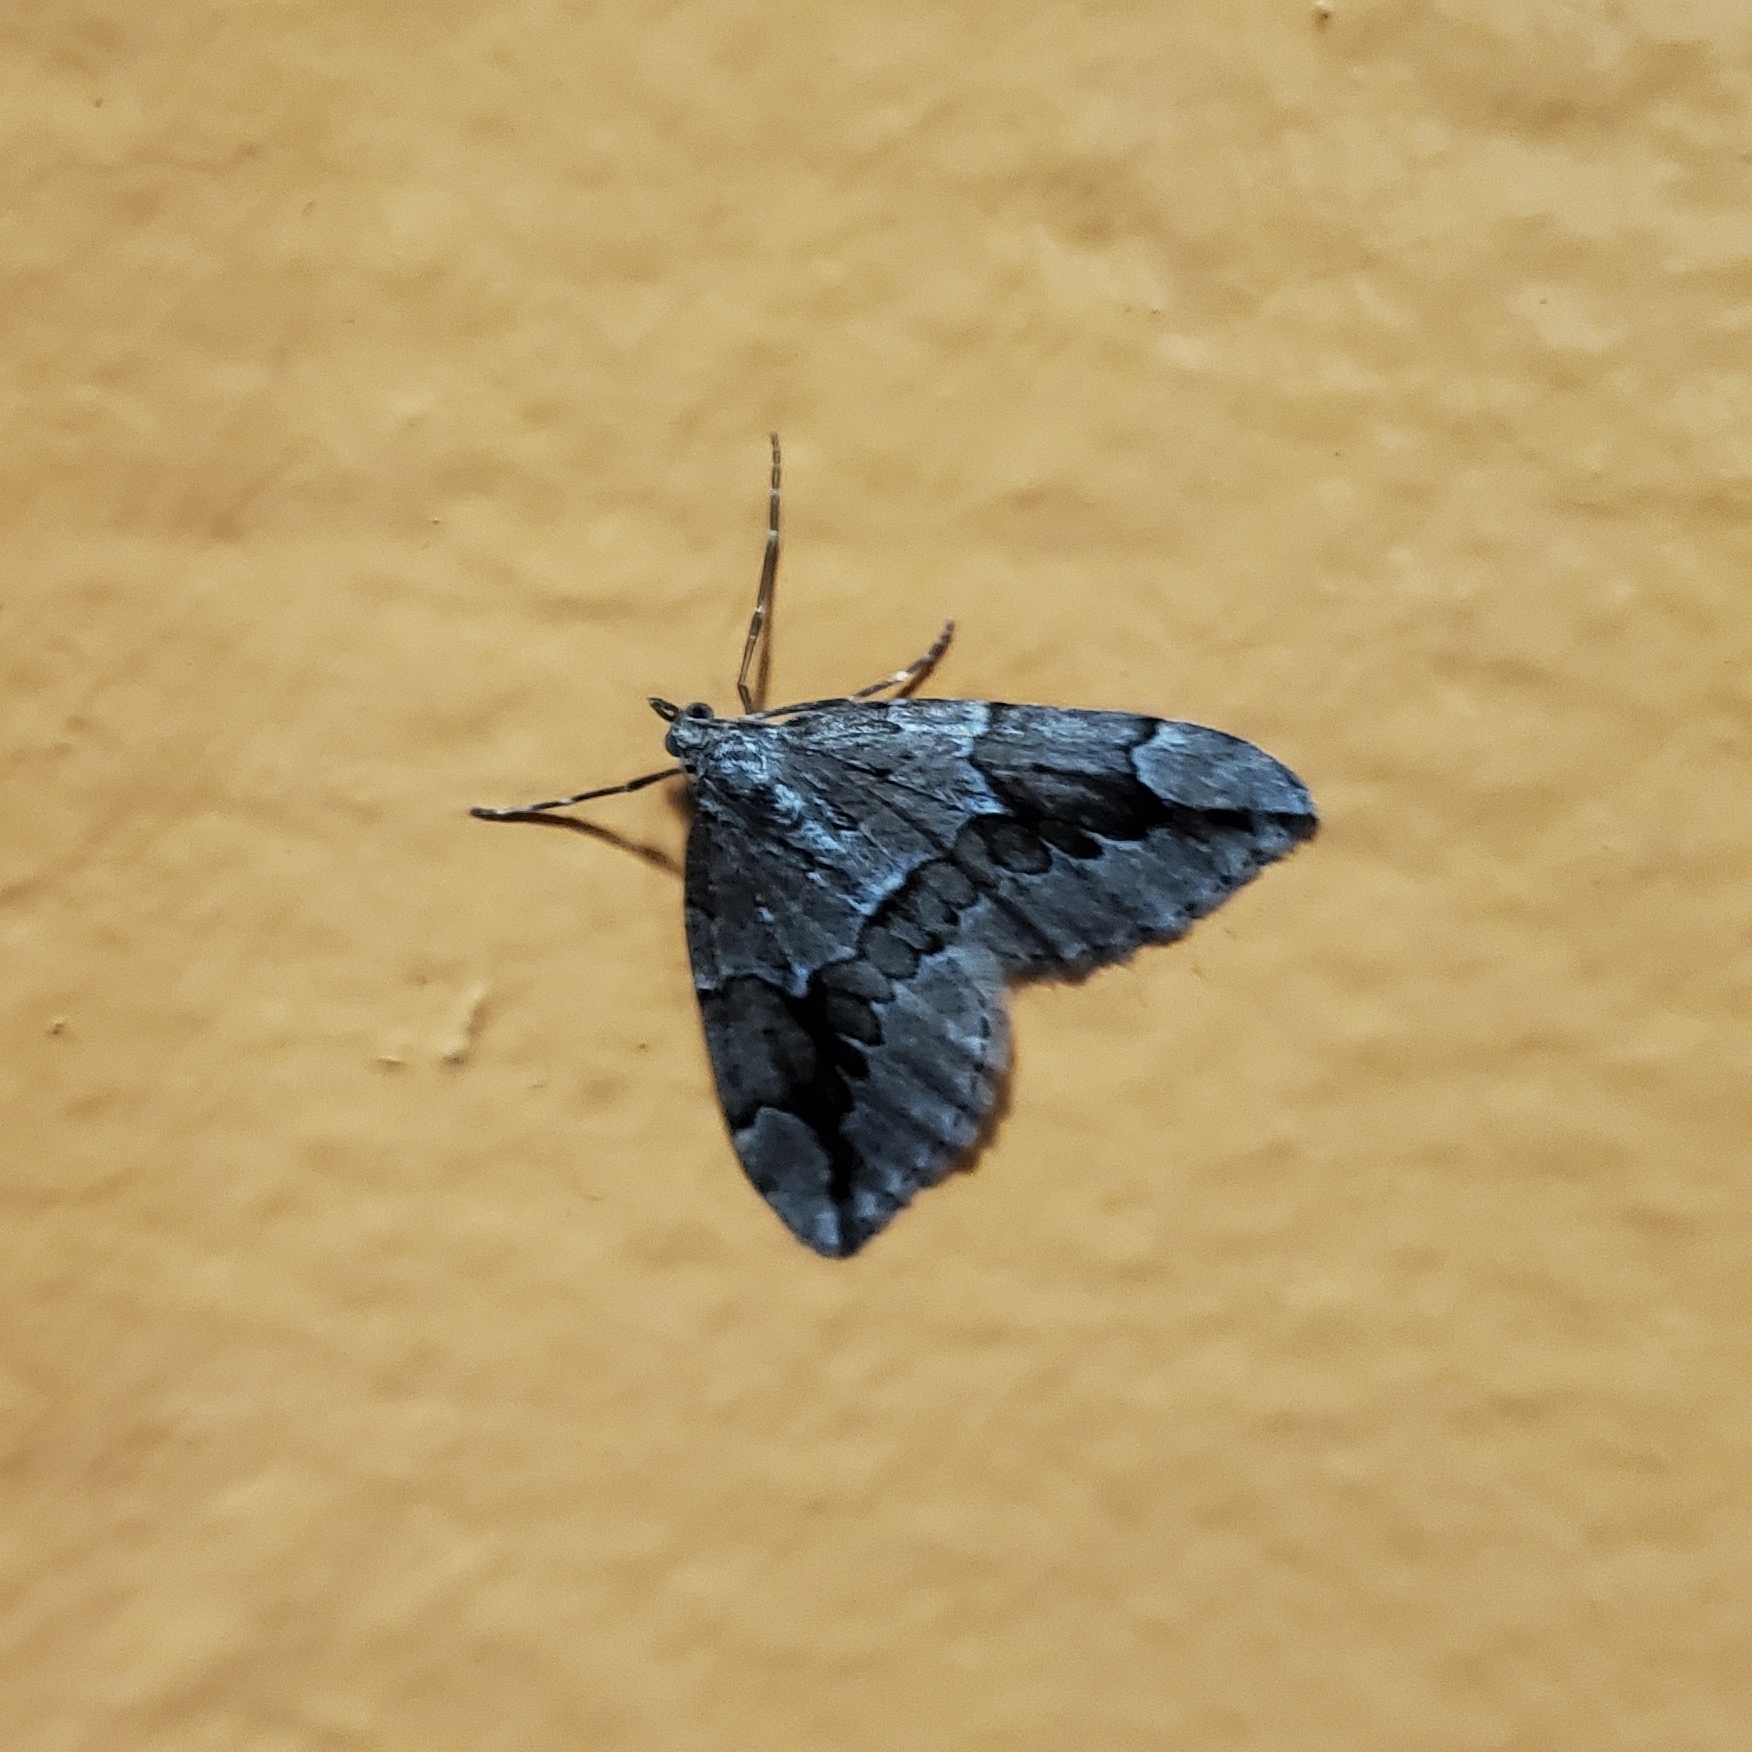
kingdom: Animalia
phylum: Arthropoda
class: Insecta
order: Lepidoptera
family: Geometridae
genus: Thera
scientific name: Thera juniperata
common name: Juniper carpet
